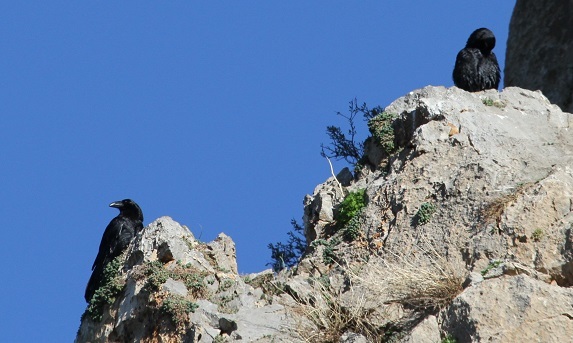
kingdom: Animalia
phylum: Chordata
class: Aves
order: Passeriformes
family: Corvidae
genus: Corvus
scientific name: Corvus corax
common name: Common raven
